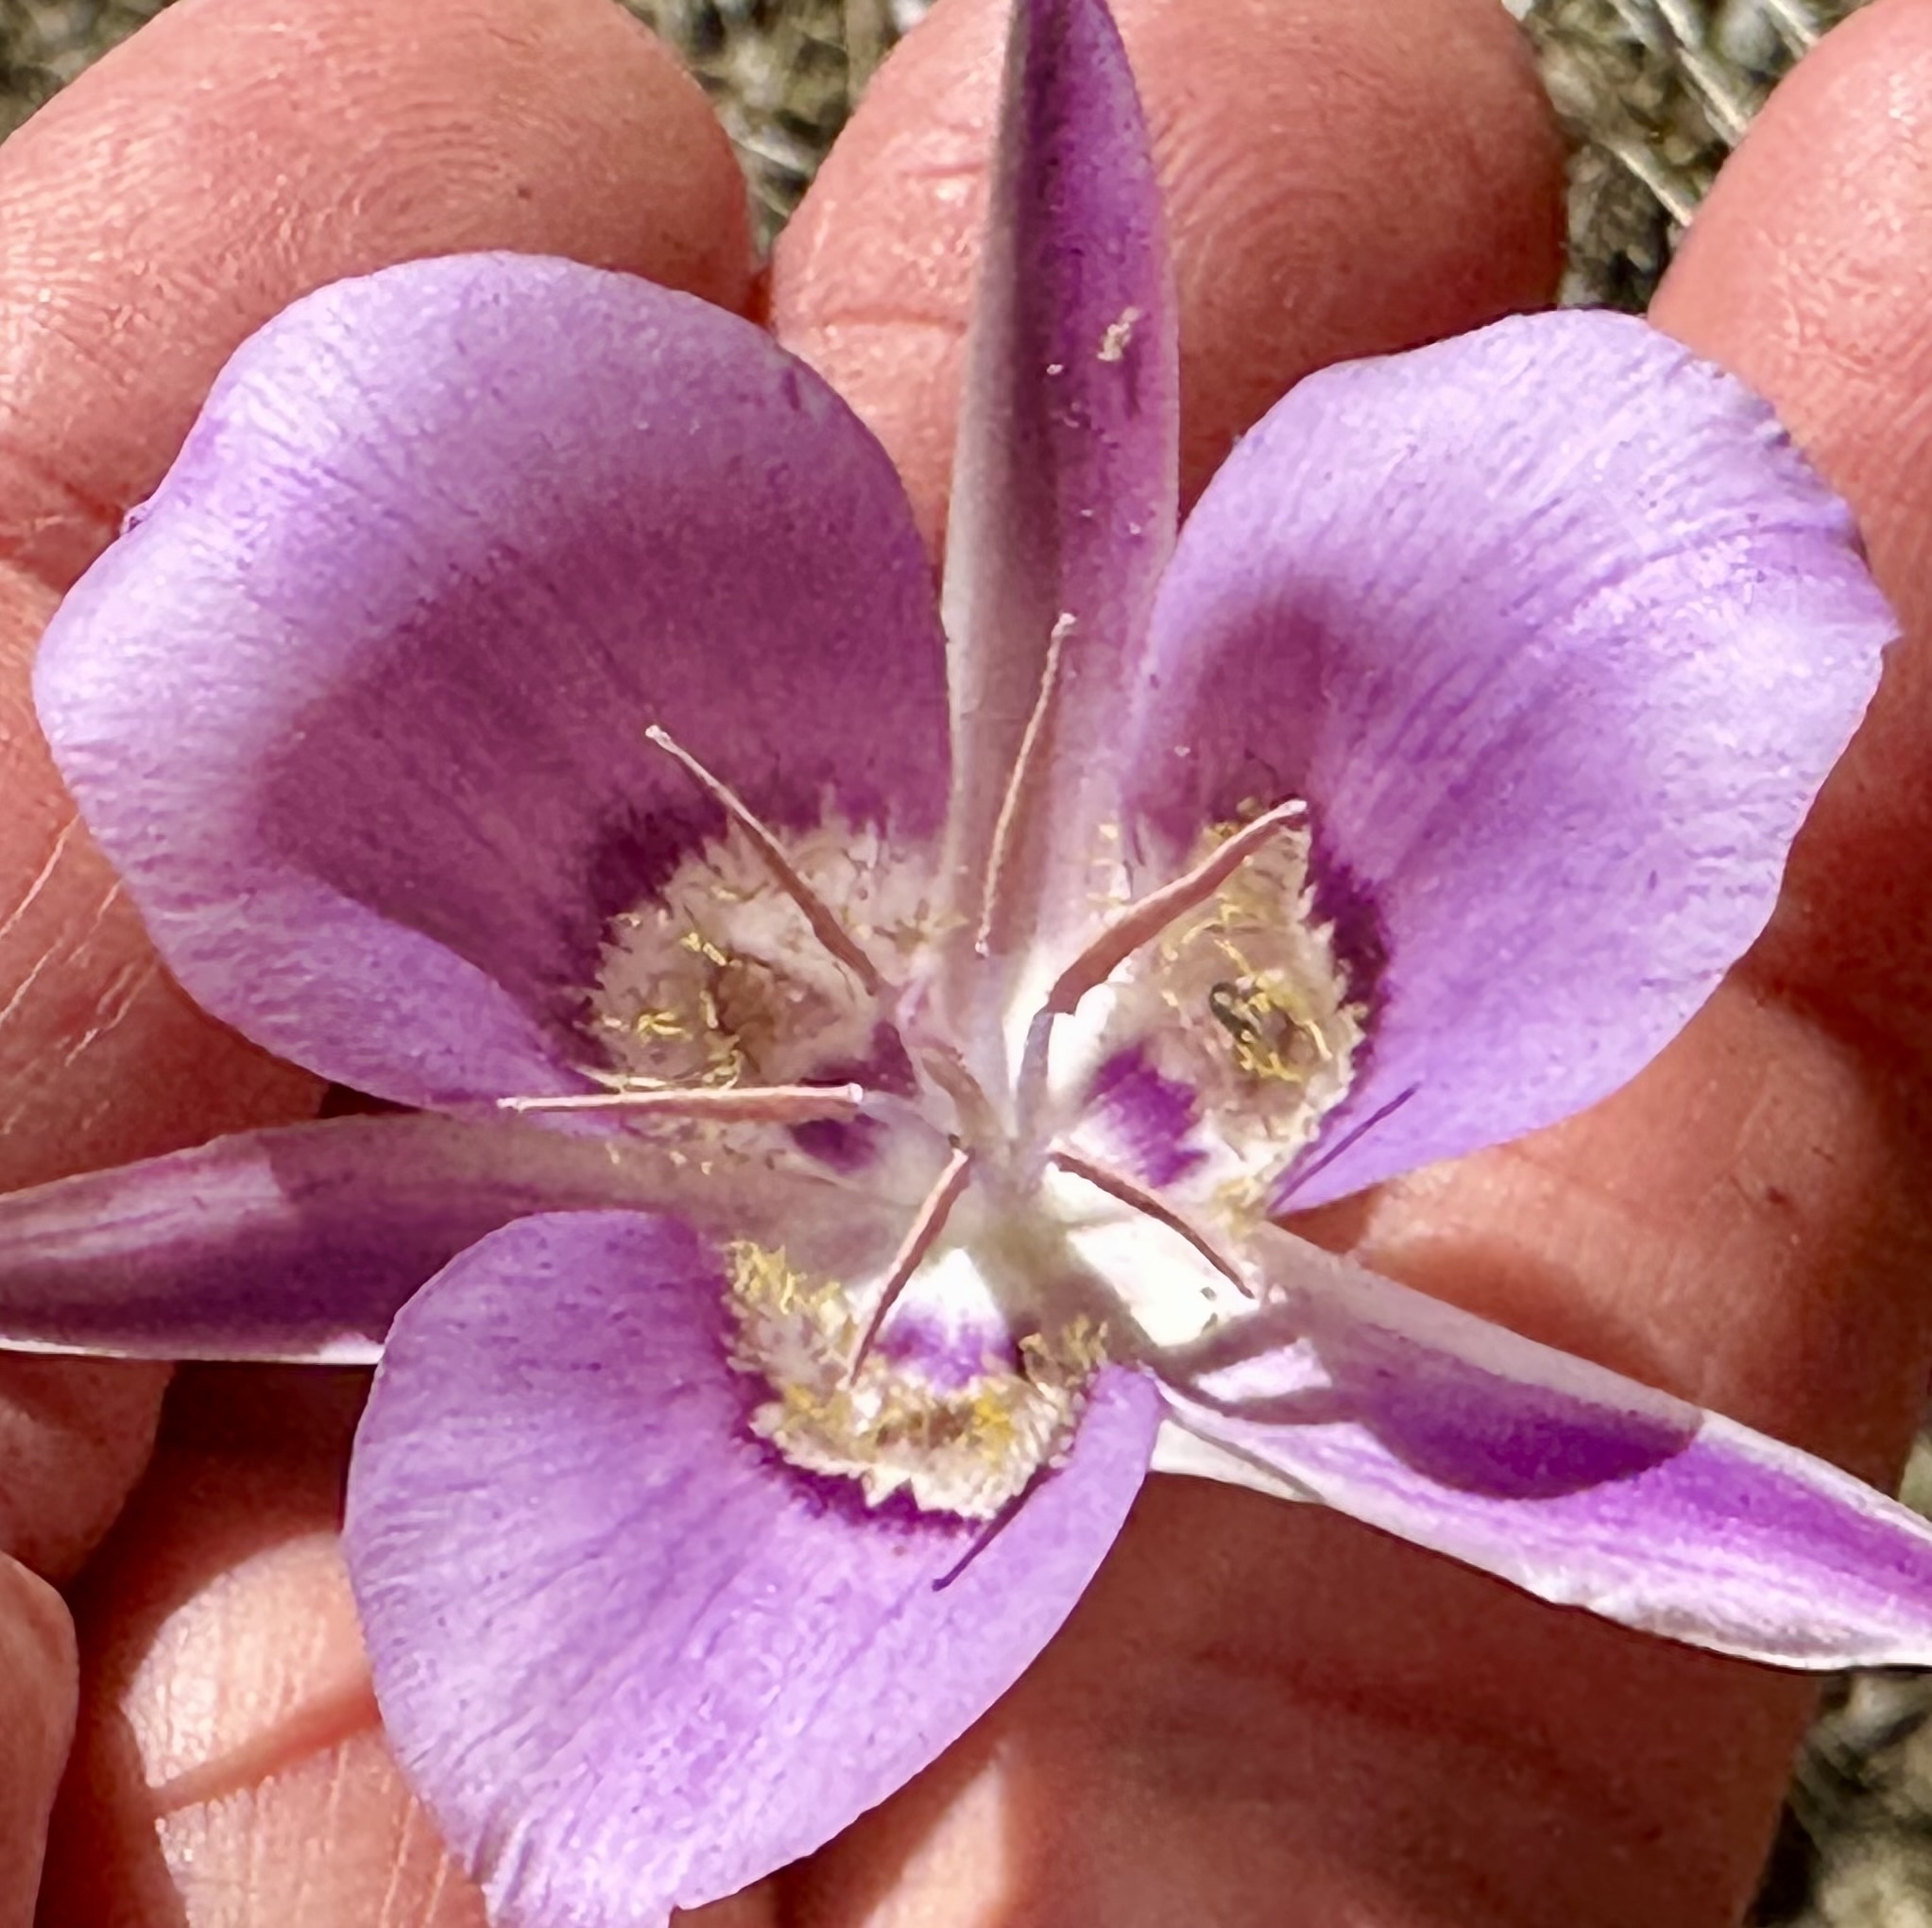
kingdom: Plantae
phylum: Tracheophyta
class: Liliopsida
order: Liliales
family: Liliaceae
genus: Calochortus
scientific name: Calochortus macrocarpus
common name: Green-band mariposa lily
